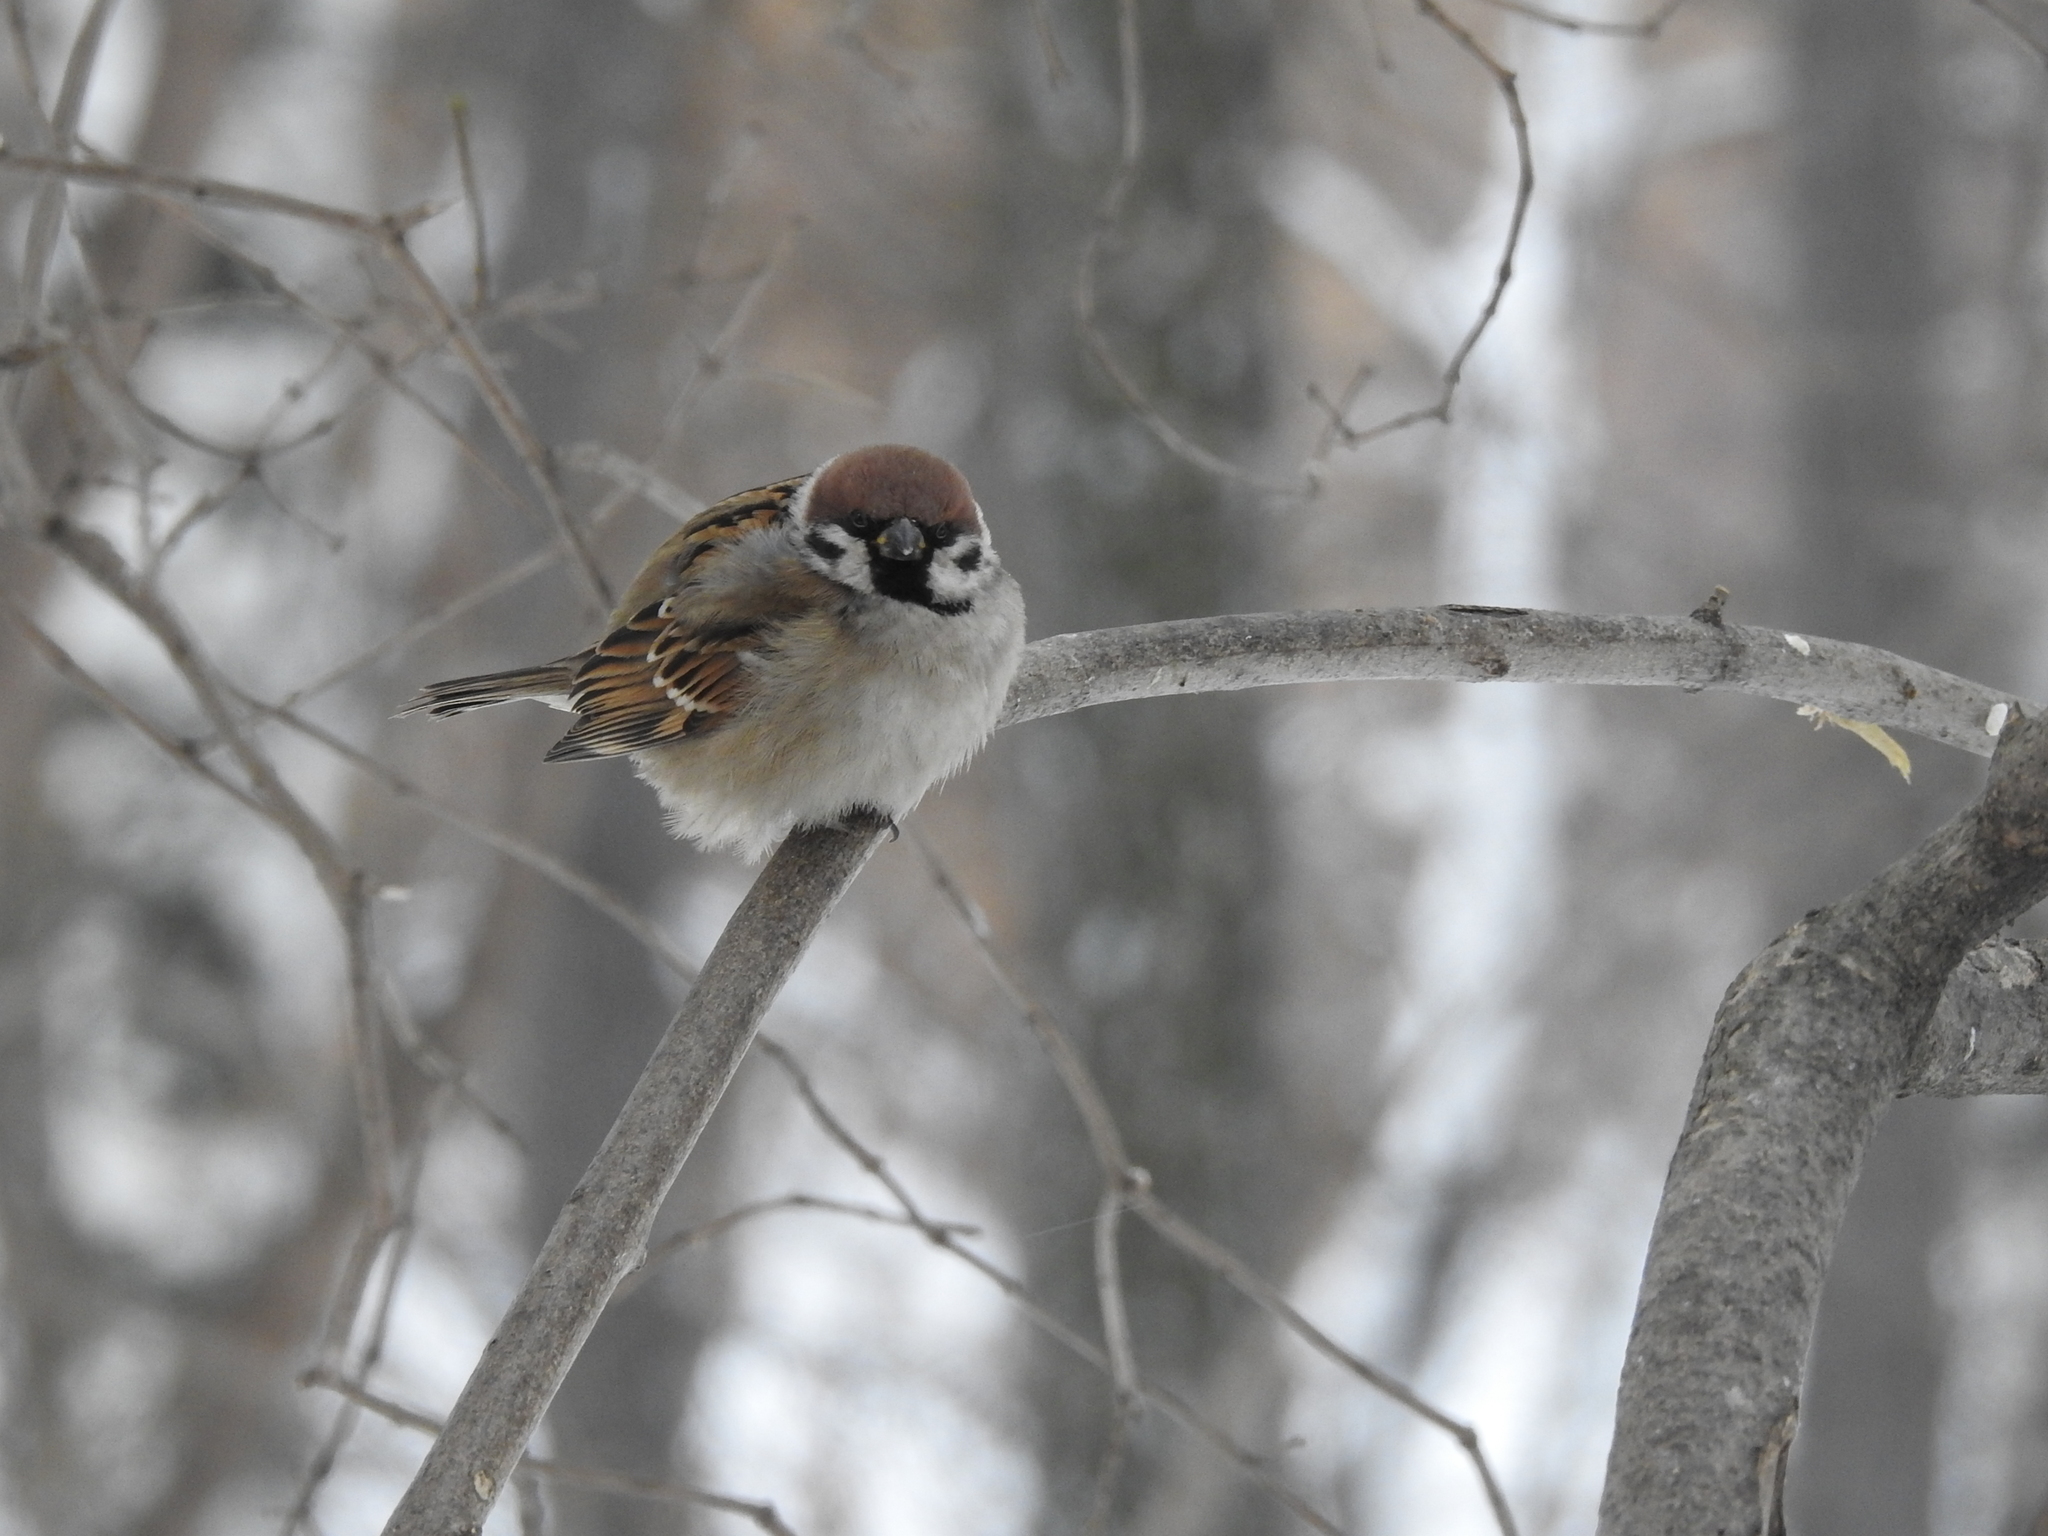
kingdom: Animalia
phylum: Chordata
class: Aves
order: Passeriformes
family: Passeridae
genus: Passer
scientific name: Passer montanus
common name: Eurasian tree sparrow
